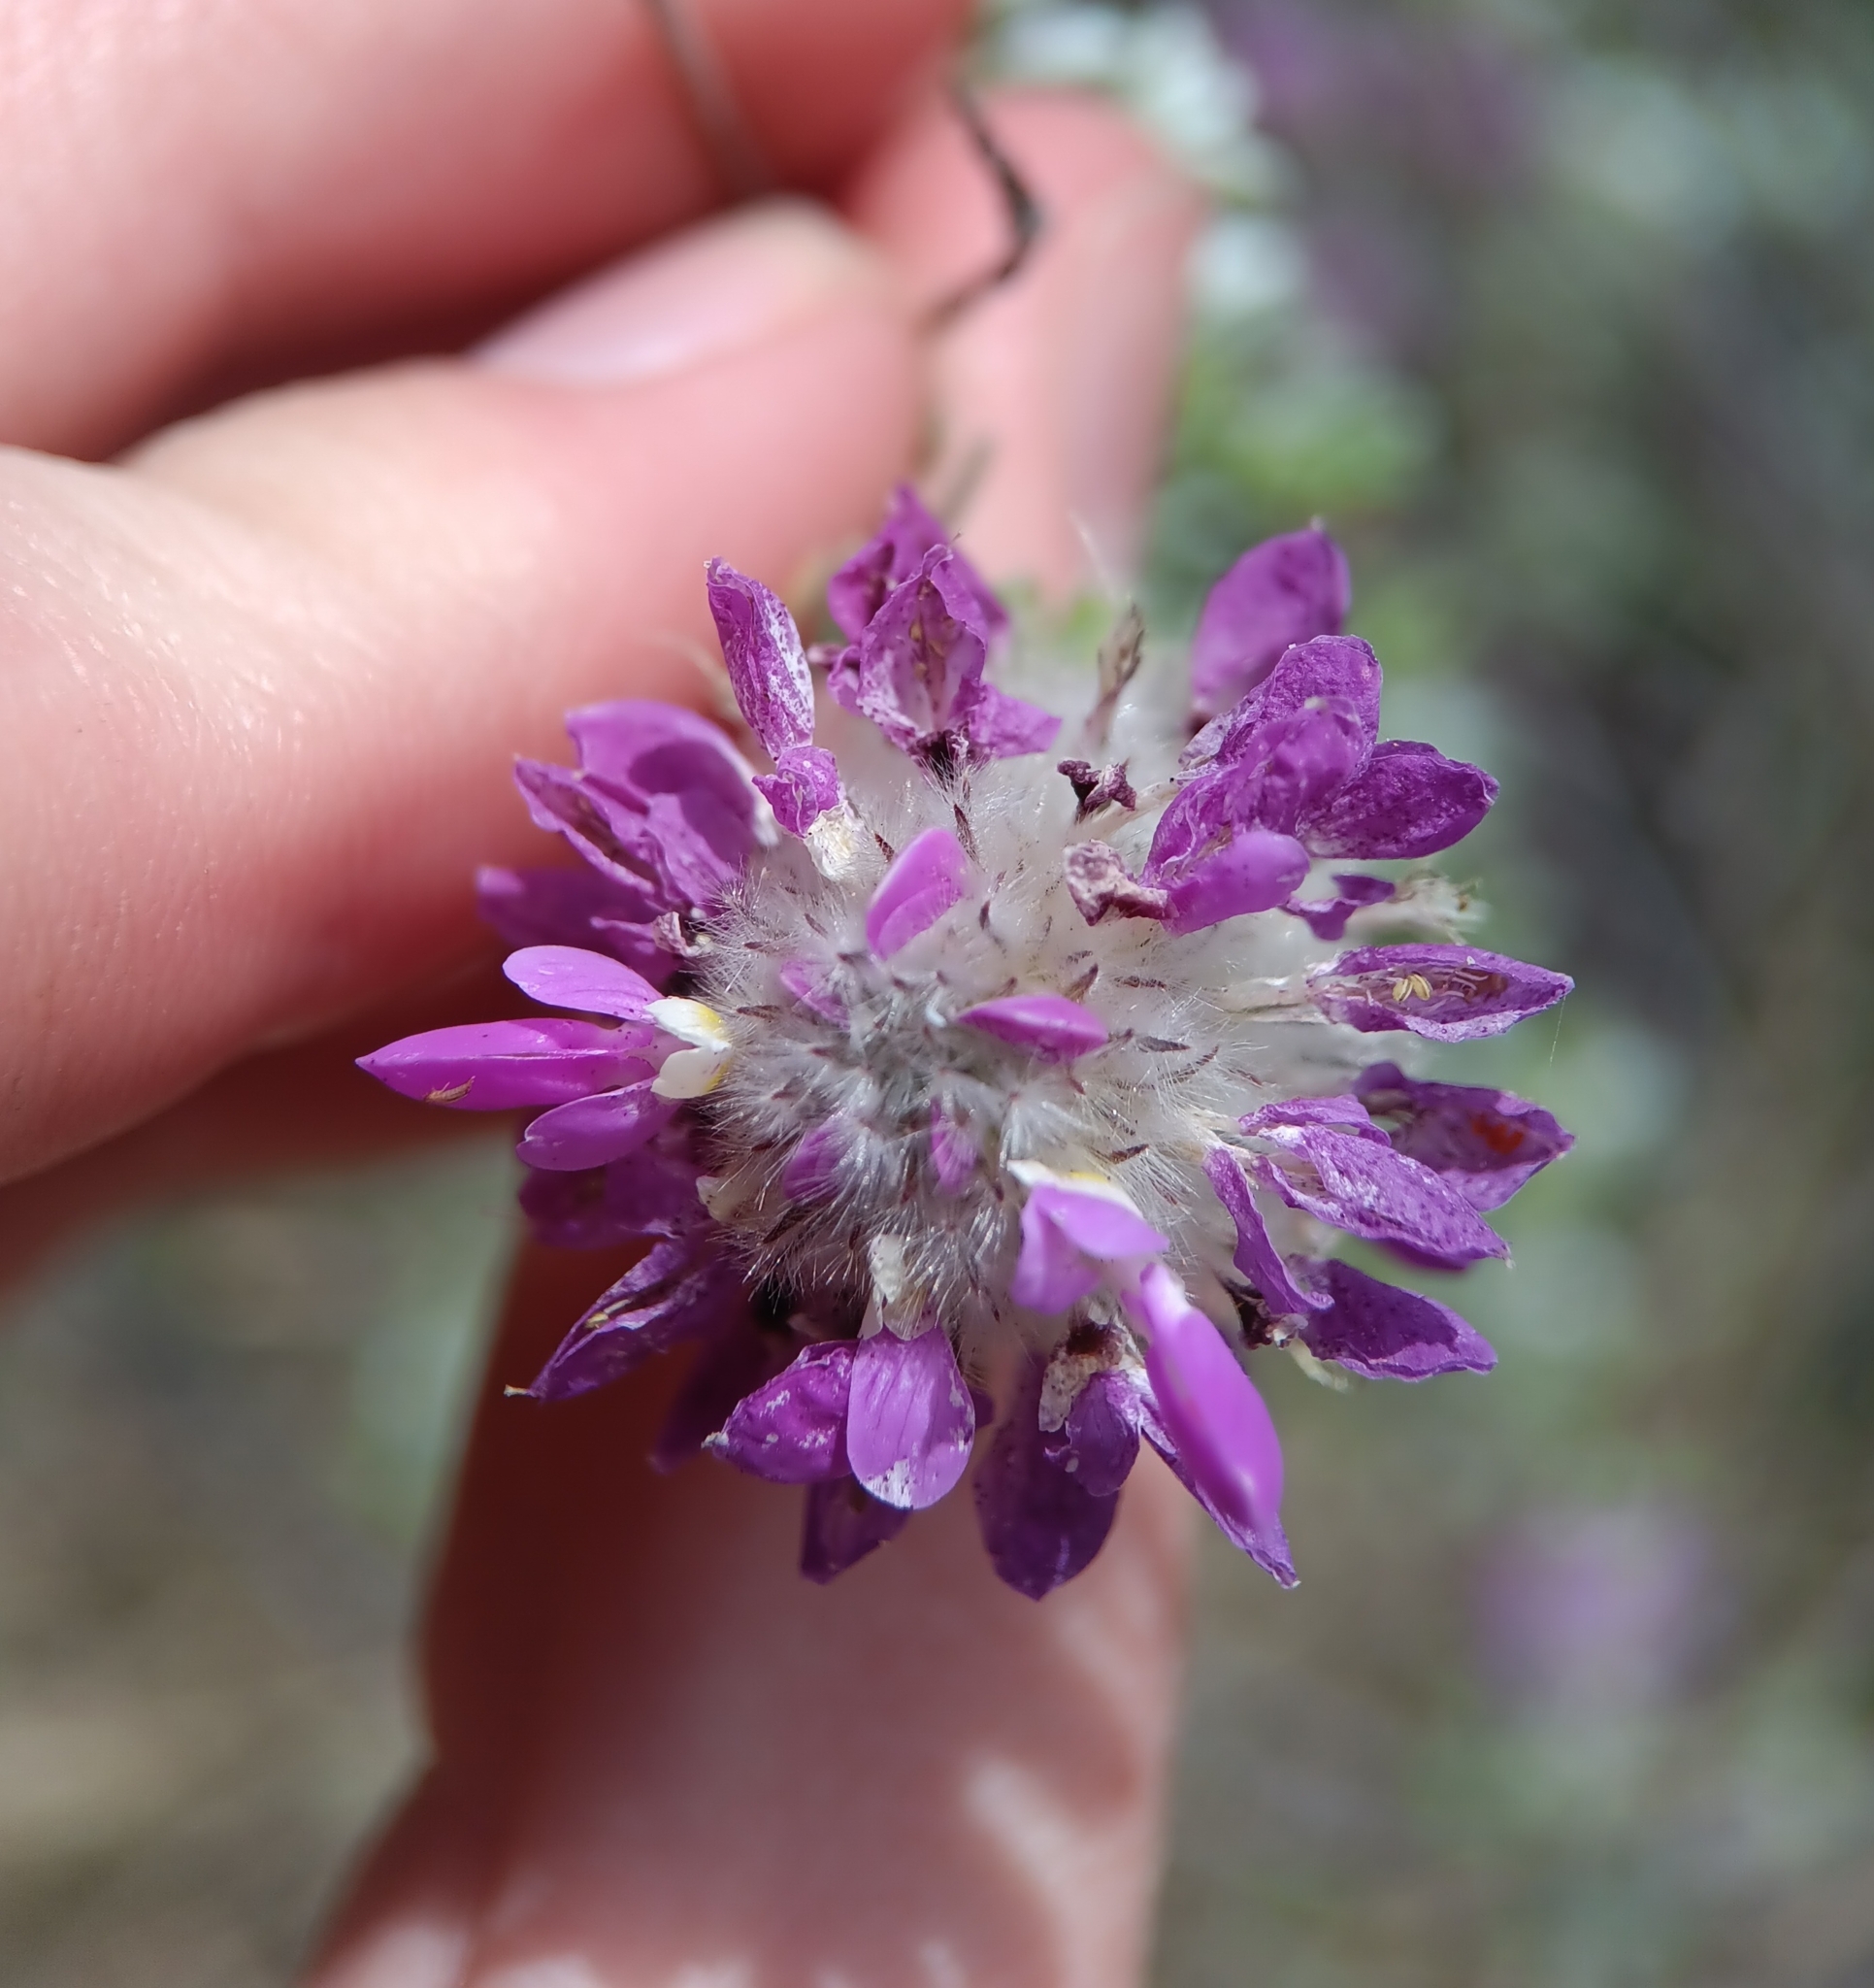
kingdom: Plantae
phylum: Tracheophyta
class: Magnoliopsida
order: Fabales
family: Fabaceae
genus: Dalea
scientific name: Dalea pulchra
